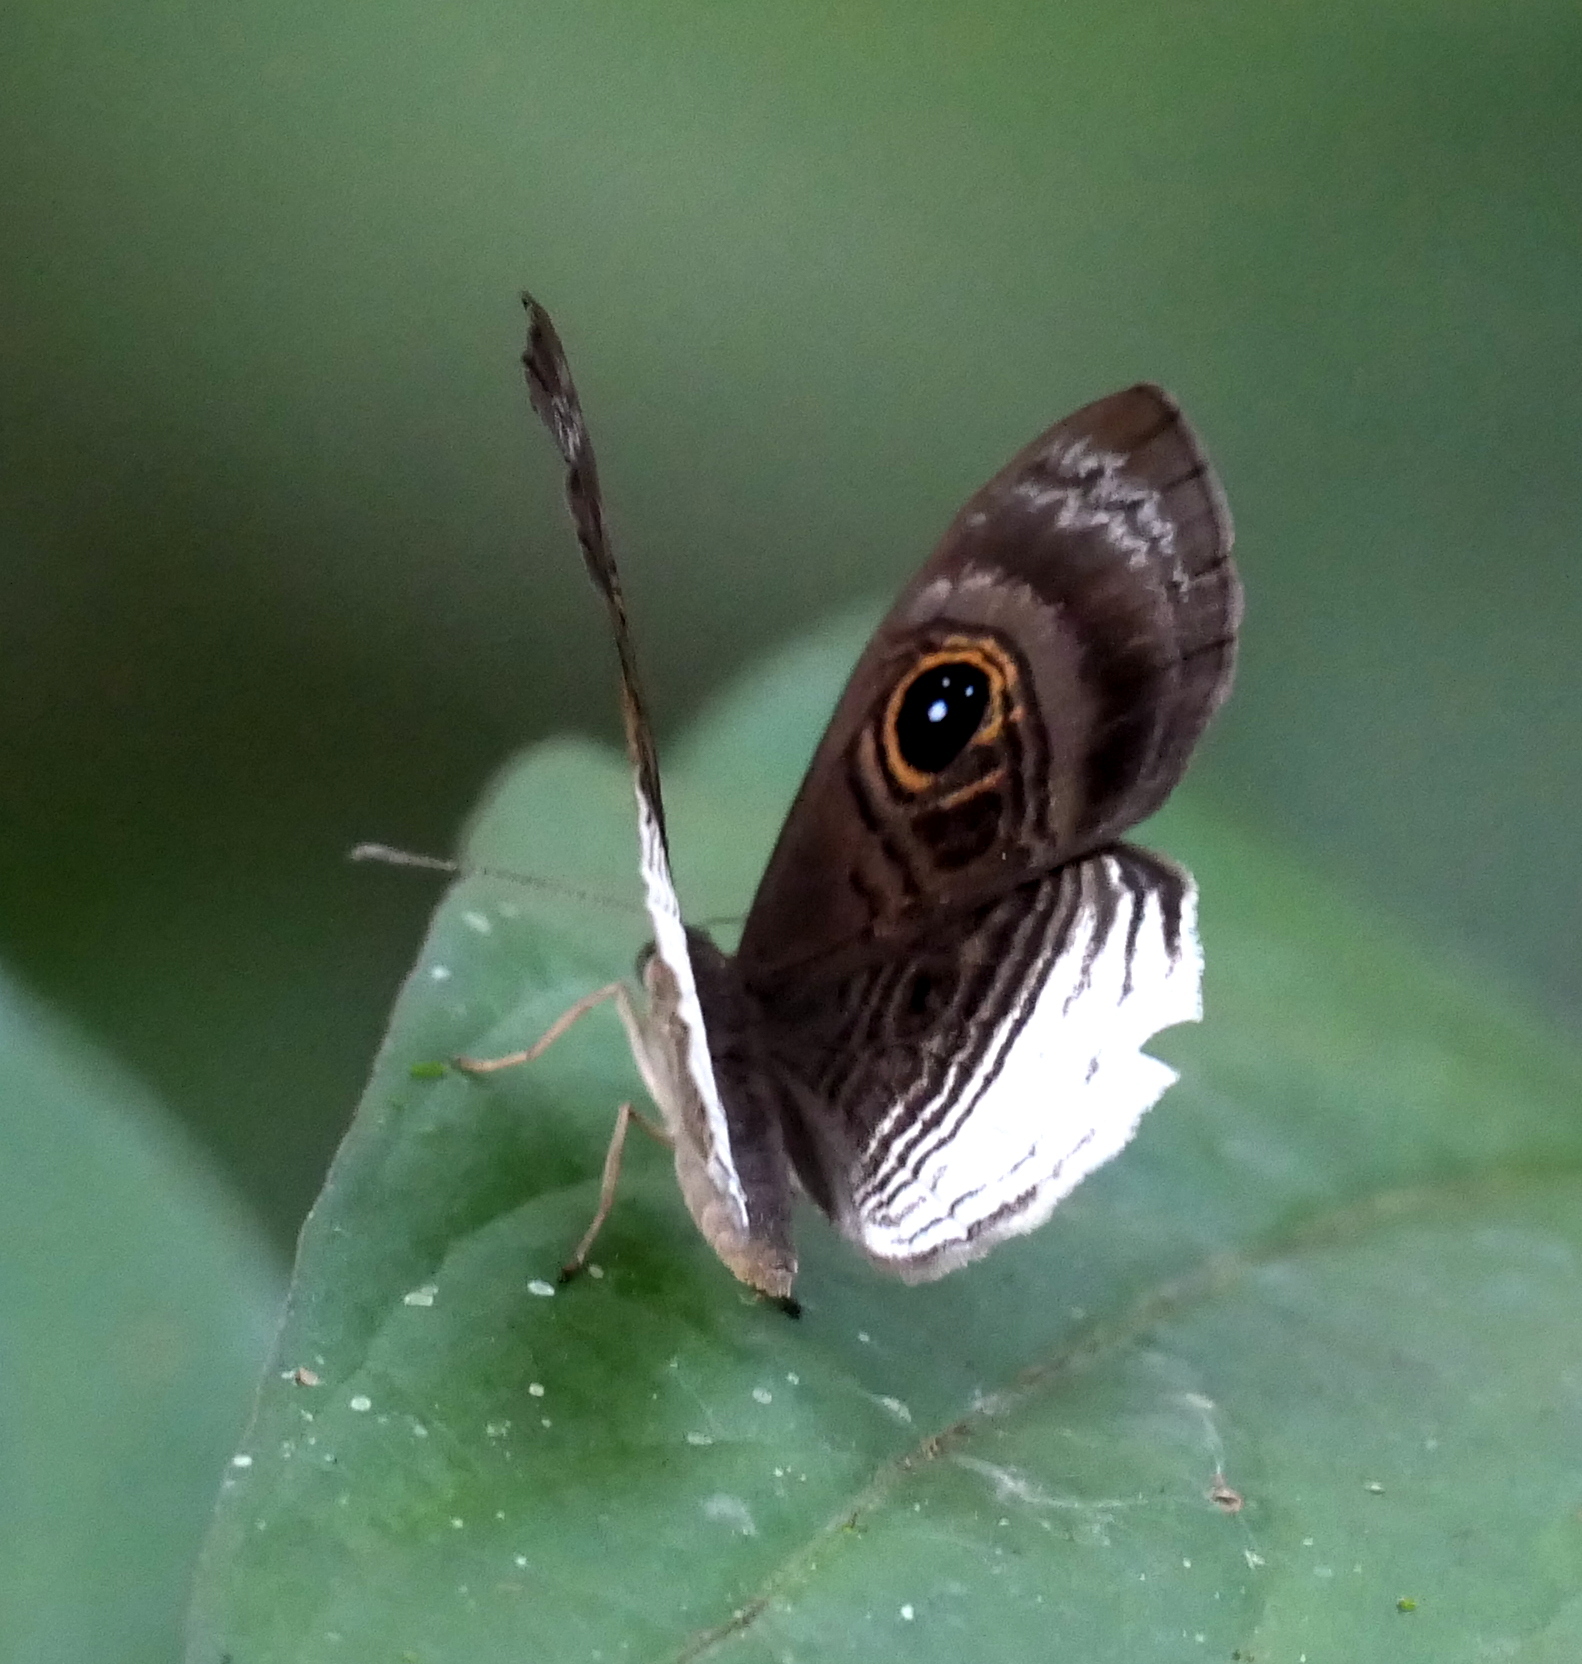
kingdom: Animalia
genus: Mesosemia
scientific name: Mesosemia nyctea
